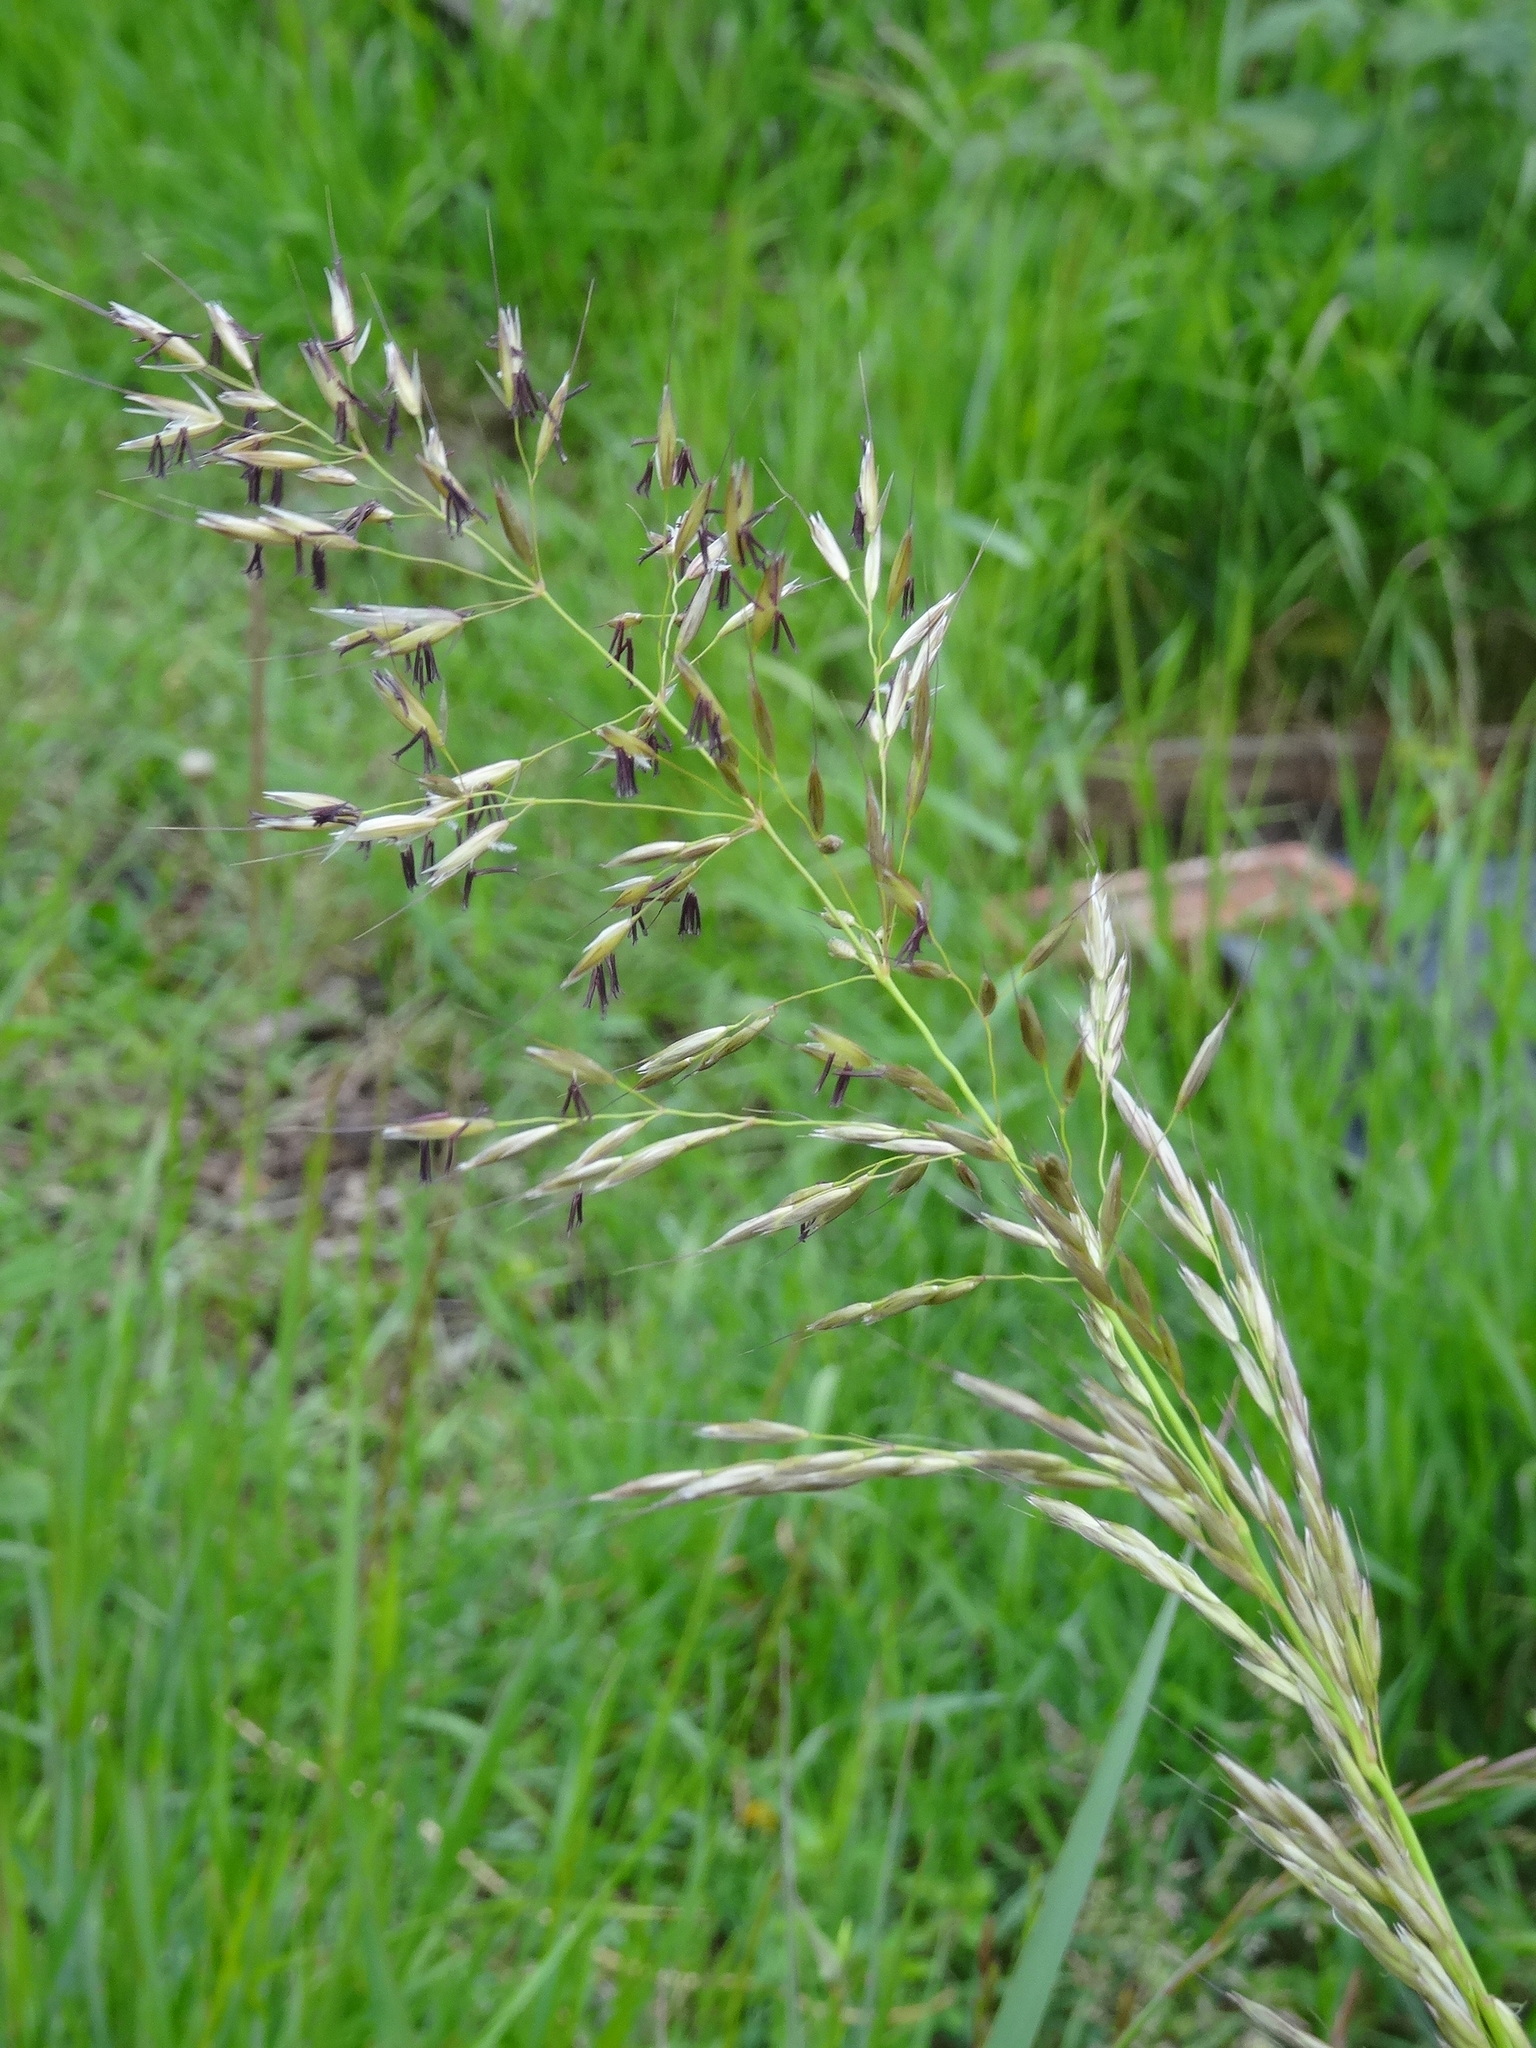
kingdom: Plantae
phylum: Tracheophyta
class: Liliopsida
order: Poales
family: Poaceae
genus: Arrhenatherum
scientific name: Arrhenatherum elatius
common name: Tall oatgrass
